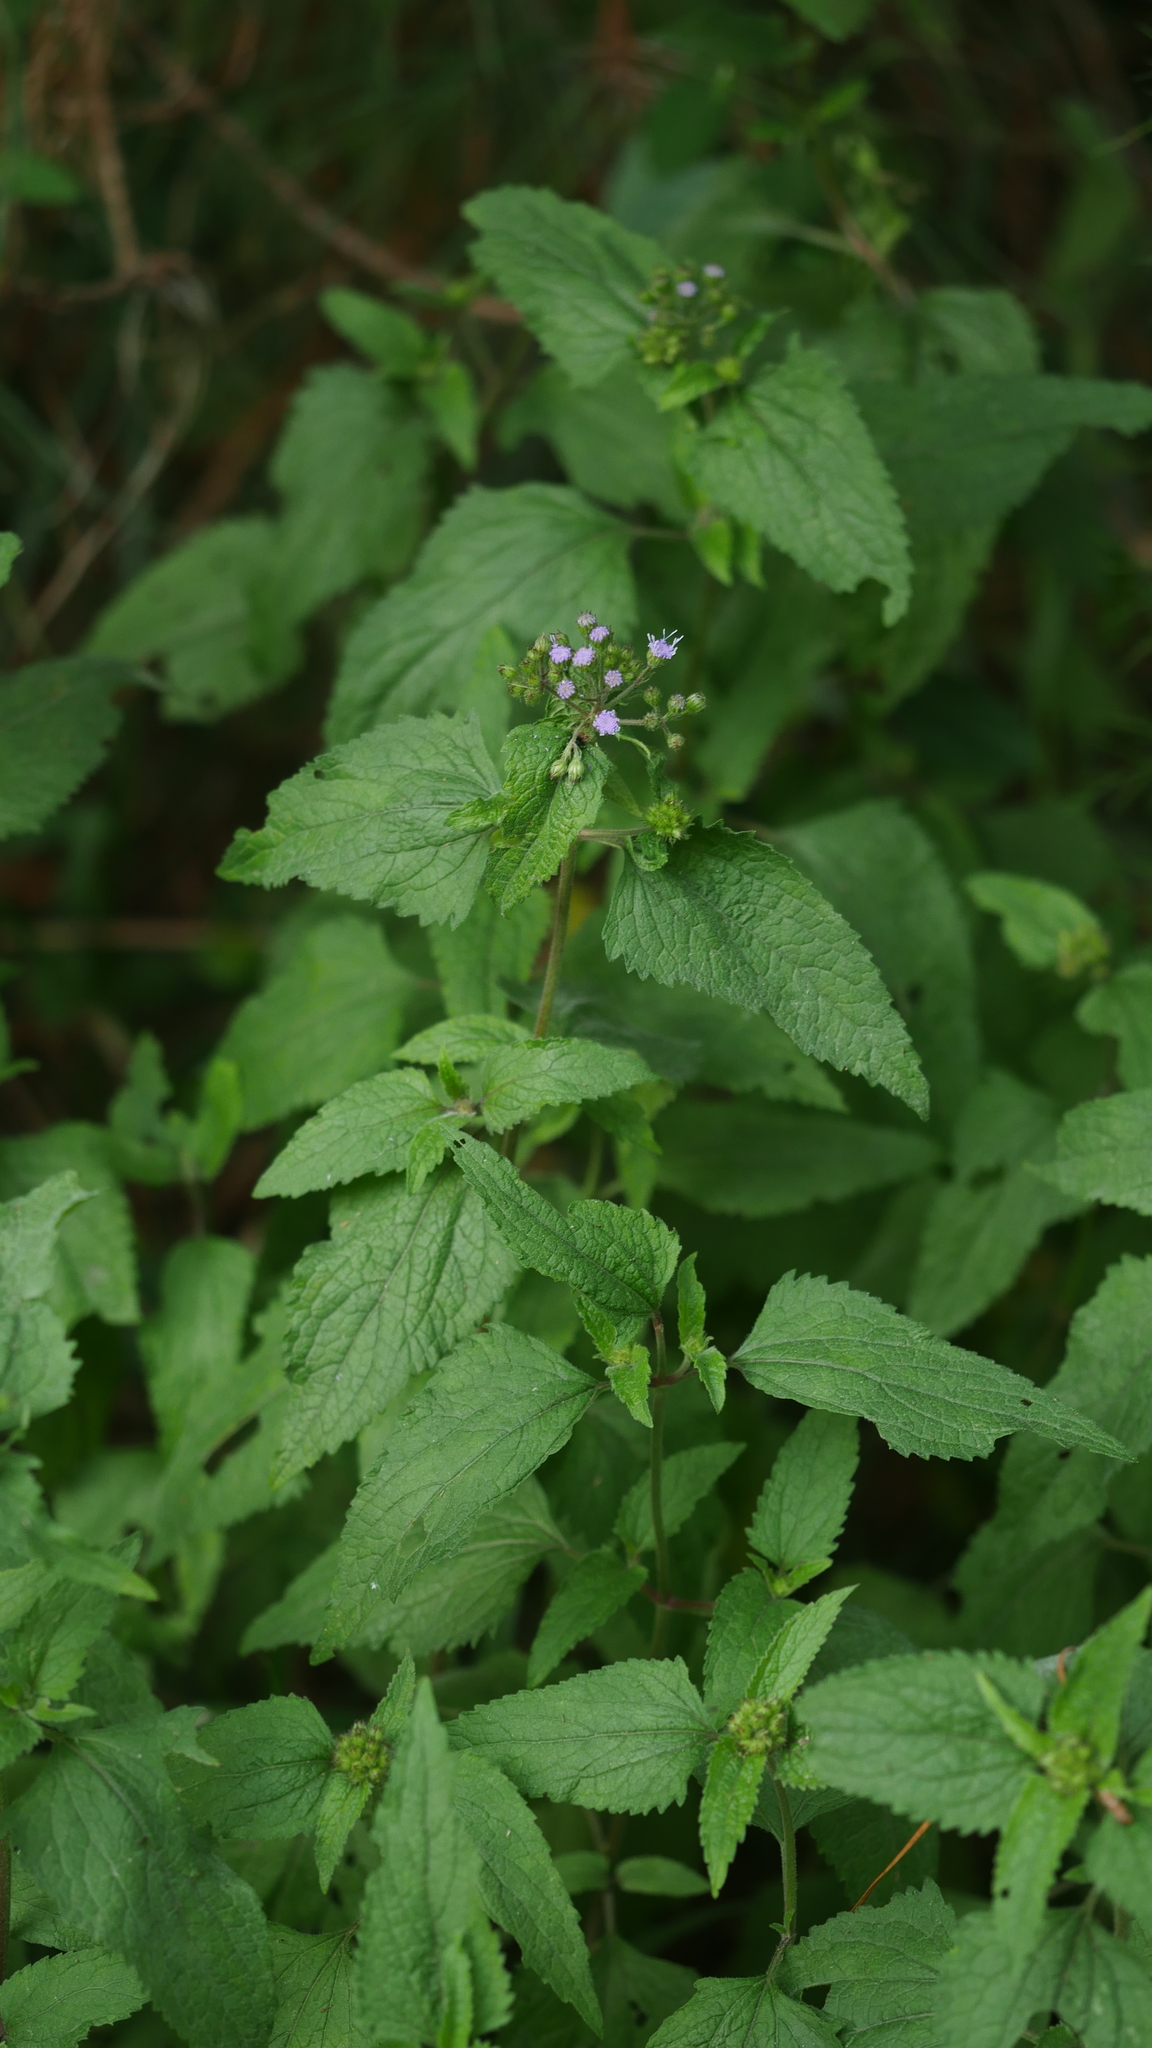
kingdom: Plantae
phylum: Tracheophyta
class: Magnoliopsida
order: Asterales
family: Asteraceae
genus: Conoclinium
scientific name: Conoclinium coelestinum
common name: Blue mistflower
